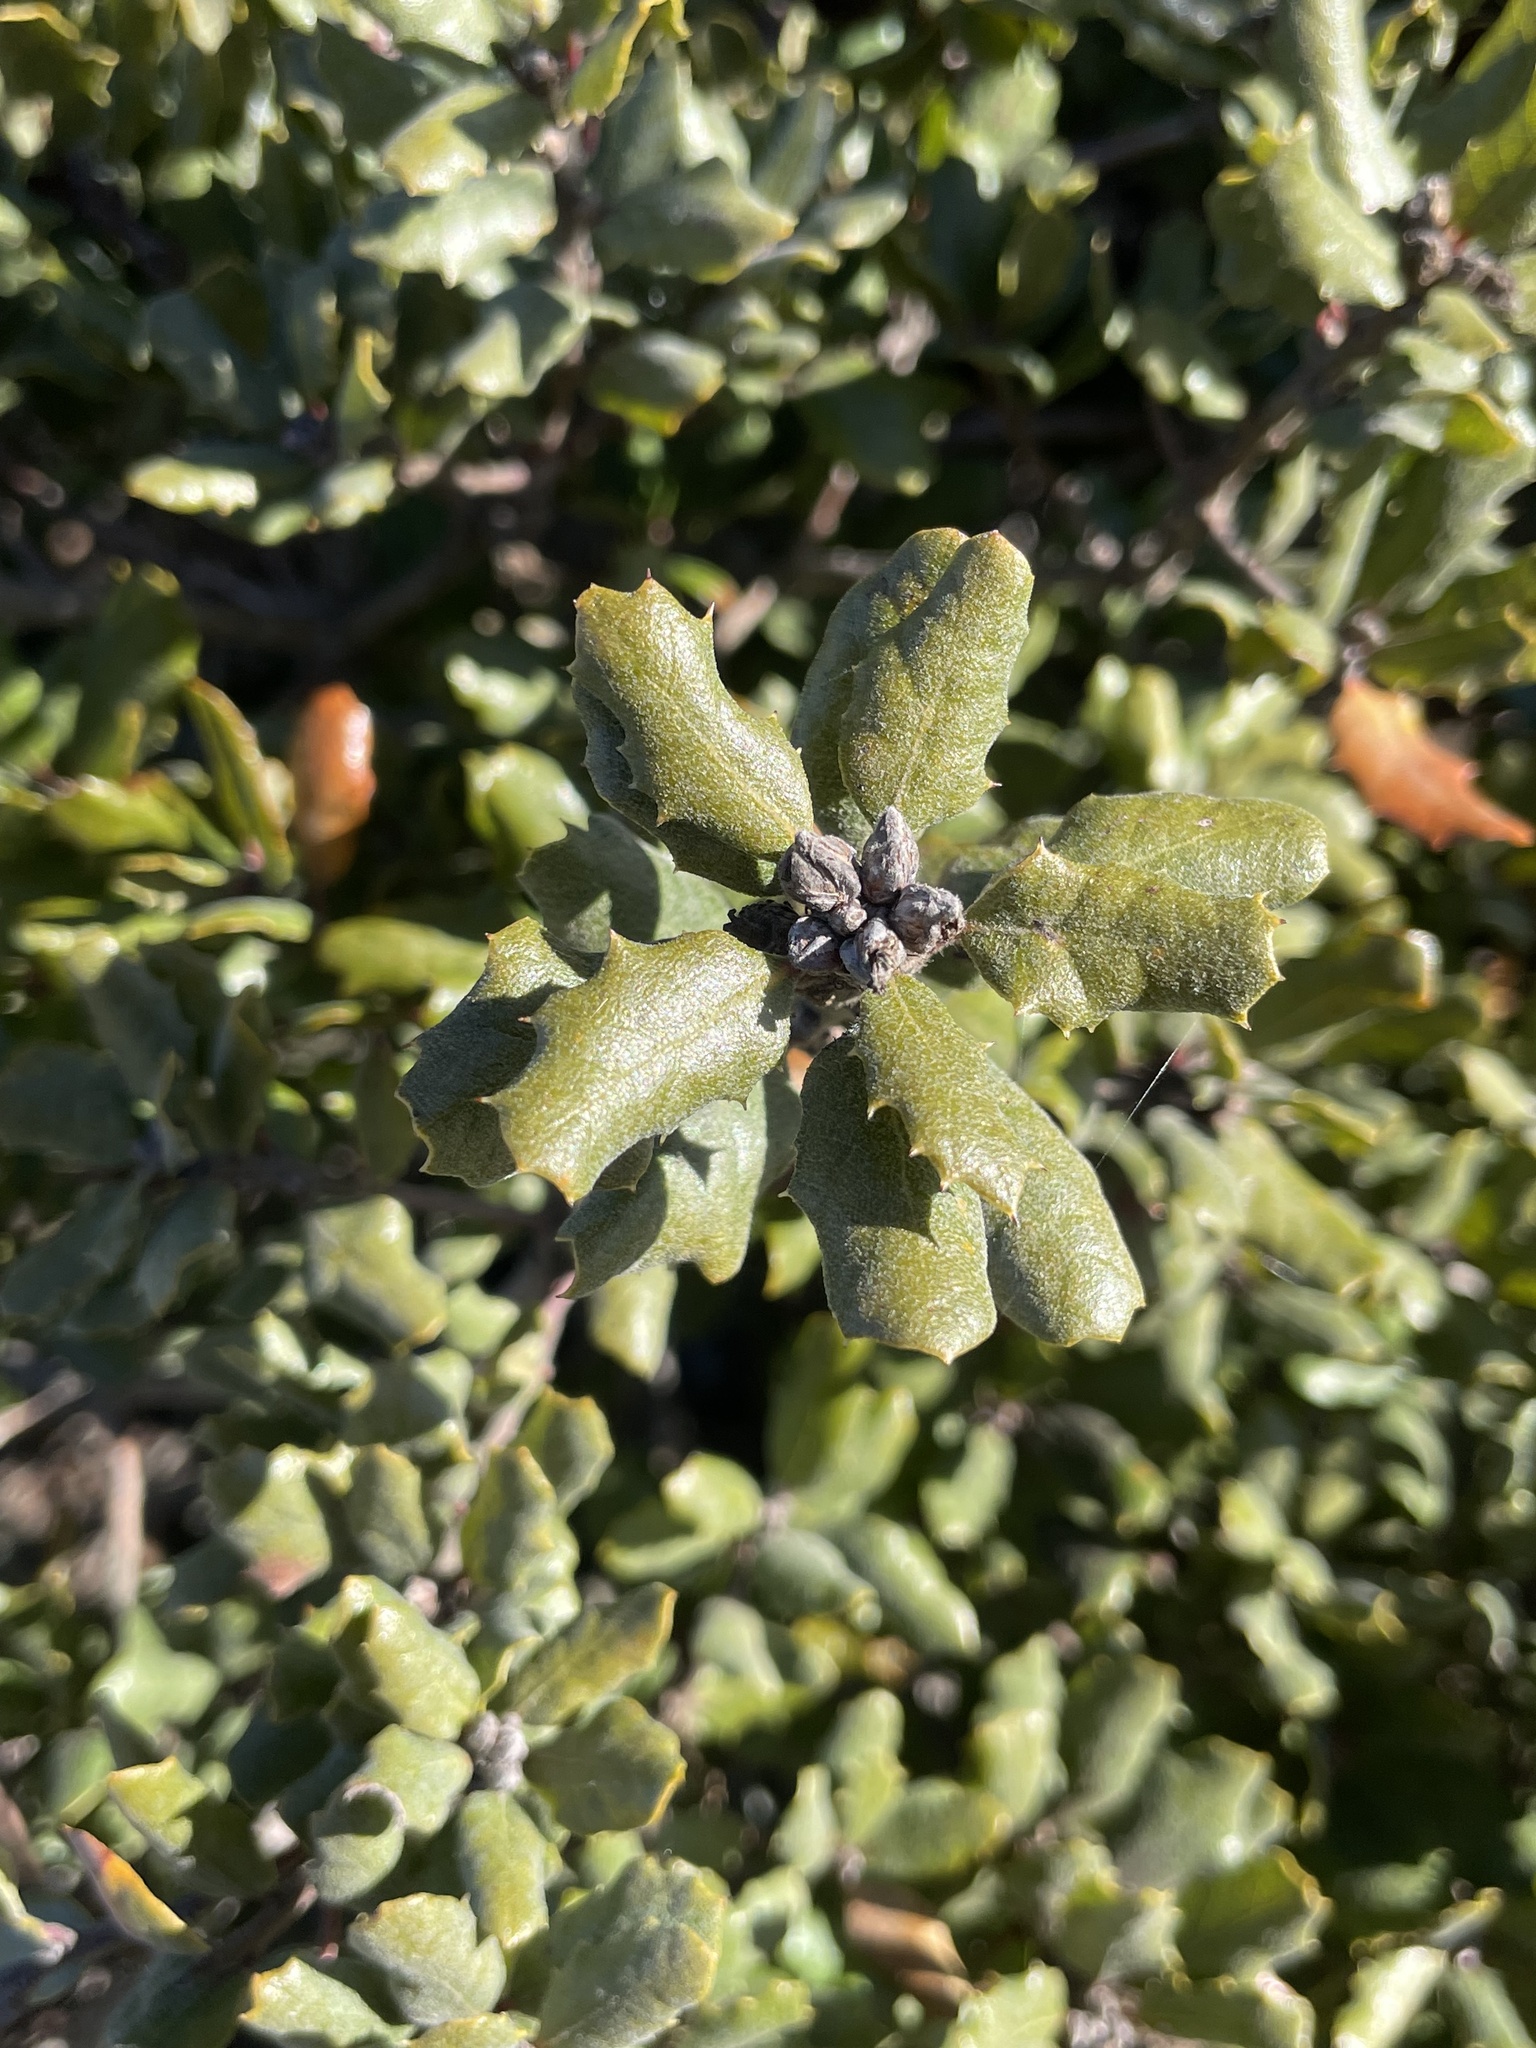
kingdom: Plantae
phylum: Tracheophyta
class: Magnoliopsida
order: Fagales
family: Fagaceae
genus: Quercus
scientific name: Quercus durata
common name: Leather oak
